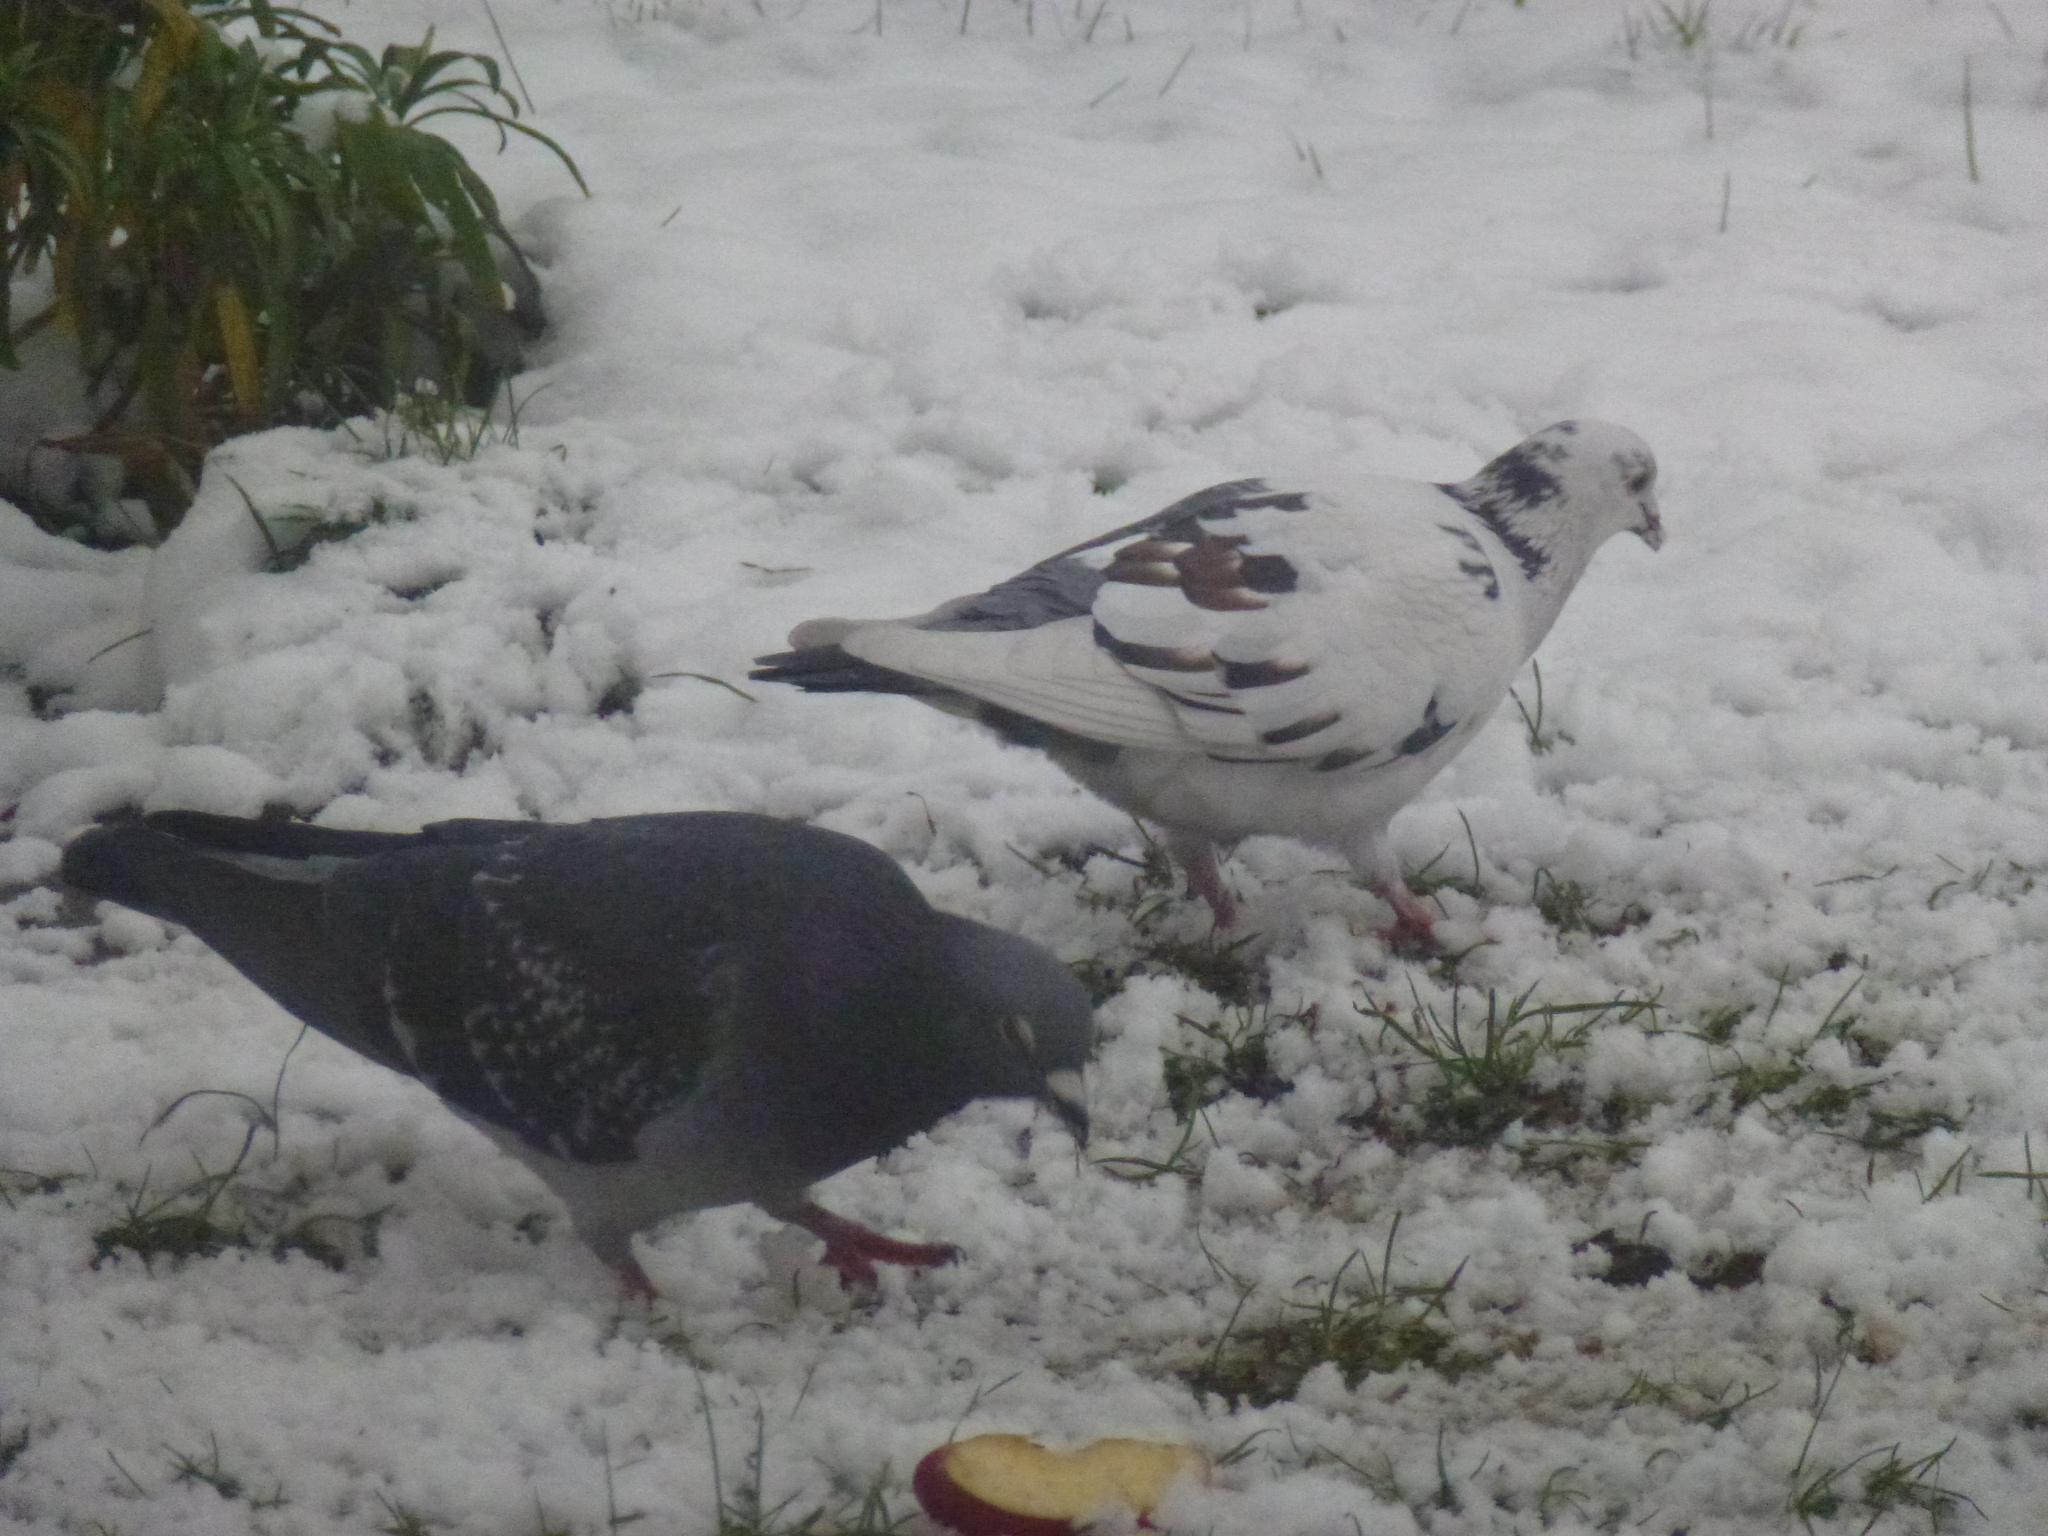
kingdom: Animalia
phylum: Chordata
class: Aves
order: Columbiformes
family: Columbidae
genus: Columba
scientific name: Columba livia
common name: Rock pigeon
